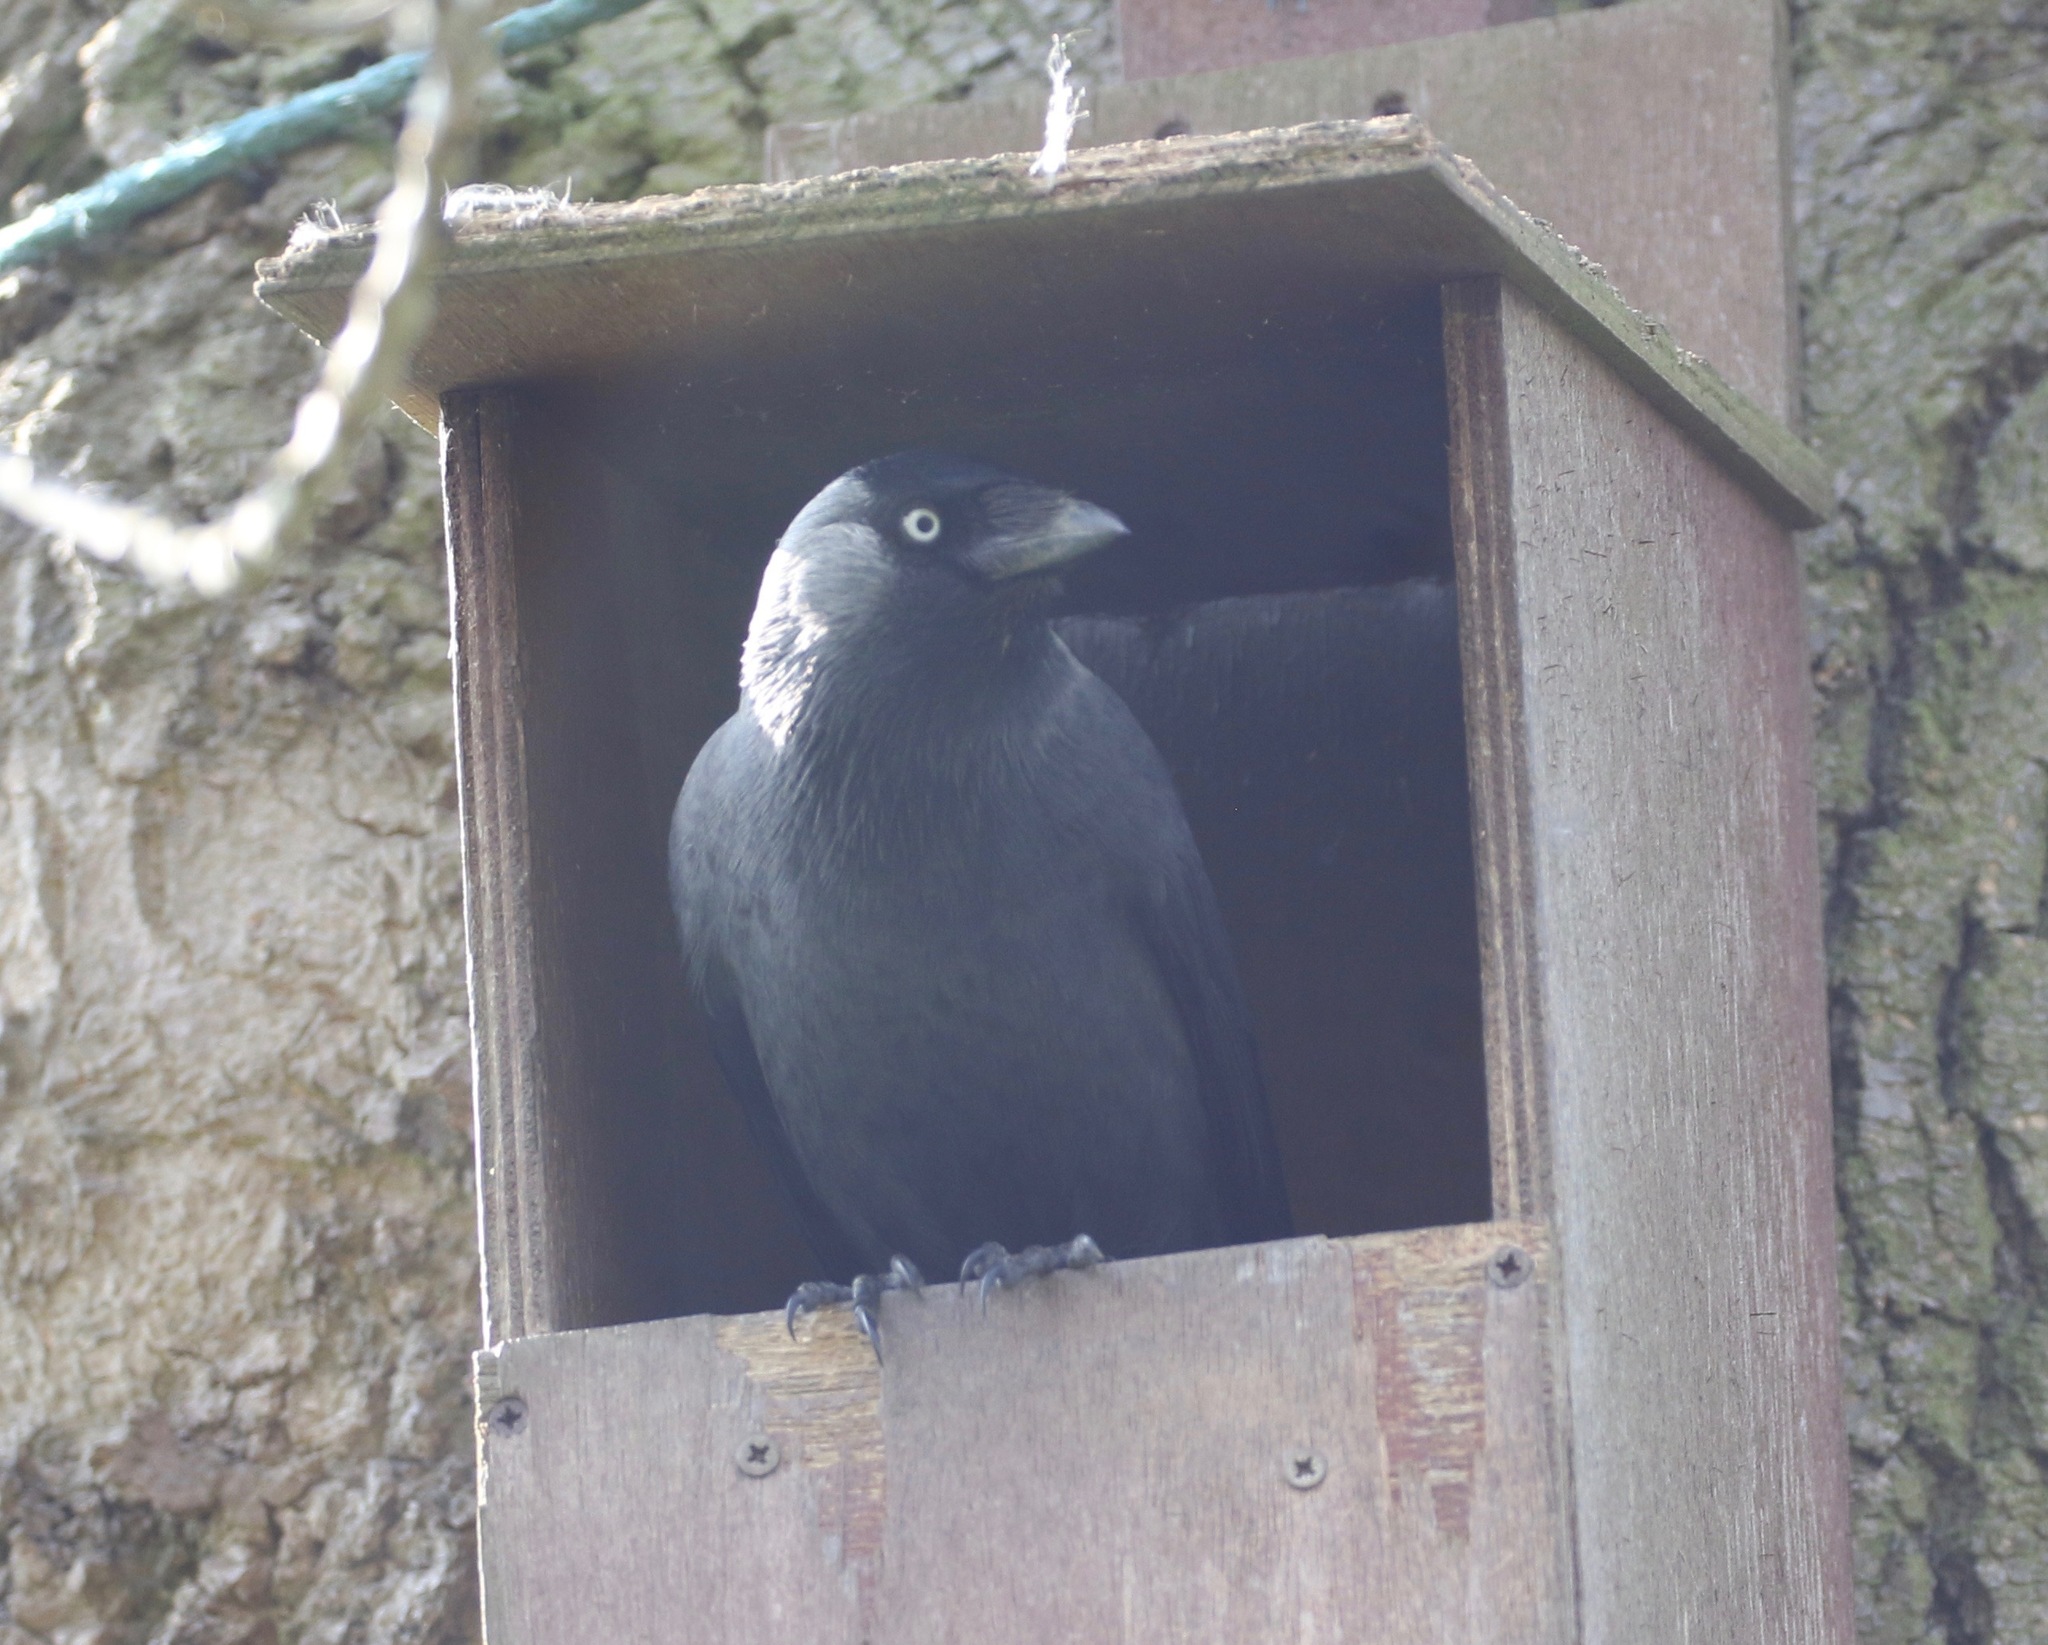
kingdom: Animalia
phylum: Chordata
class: Aves
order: Passeriformes
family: Corvidae
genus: Coloeus
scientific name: Coloeus monedula
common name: Western jackdaw
